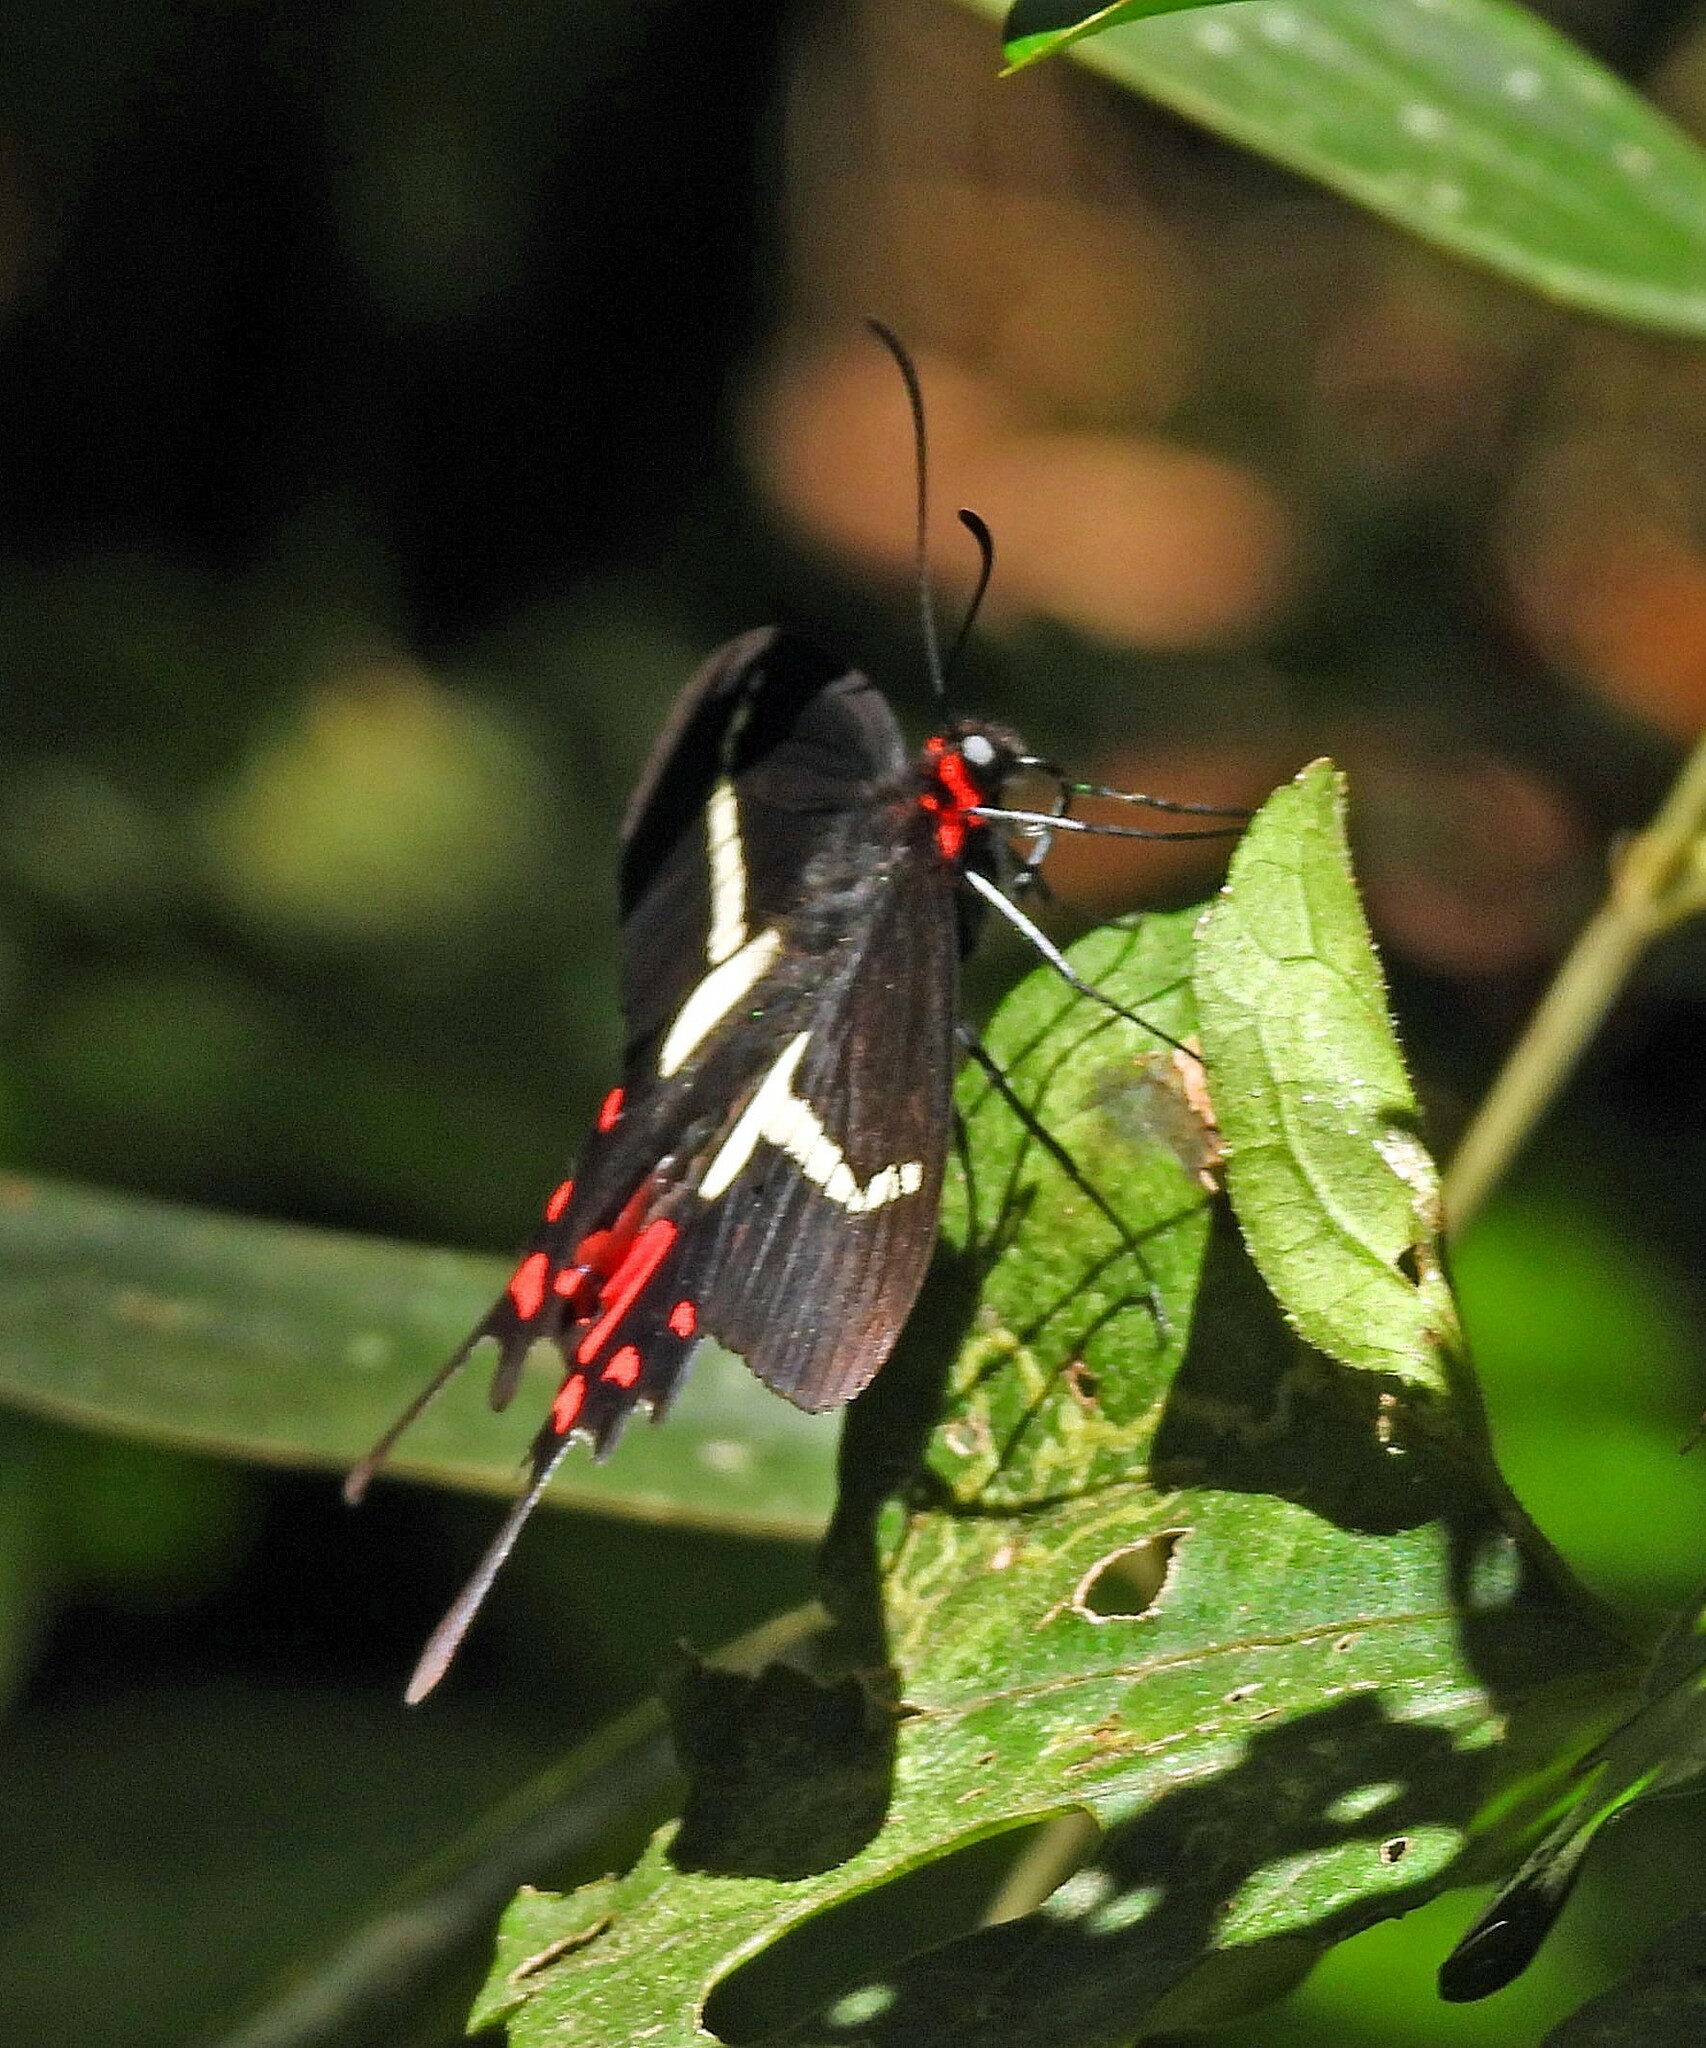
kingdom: Animalia
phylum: Arthropoda
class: Insecta
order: Lepidoptera
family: Papilionidae
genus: Parides
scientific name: Parides agavus
